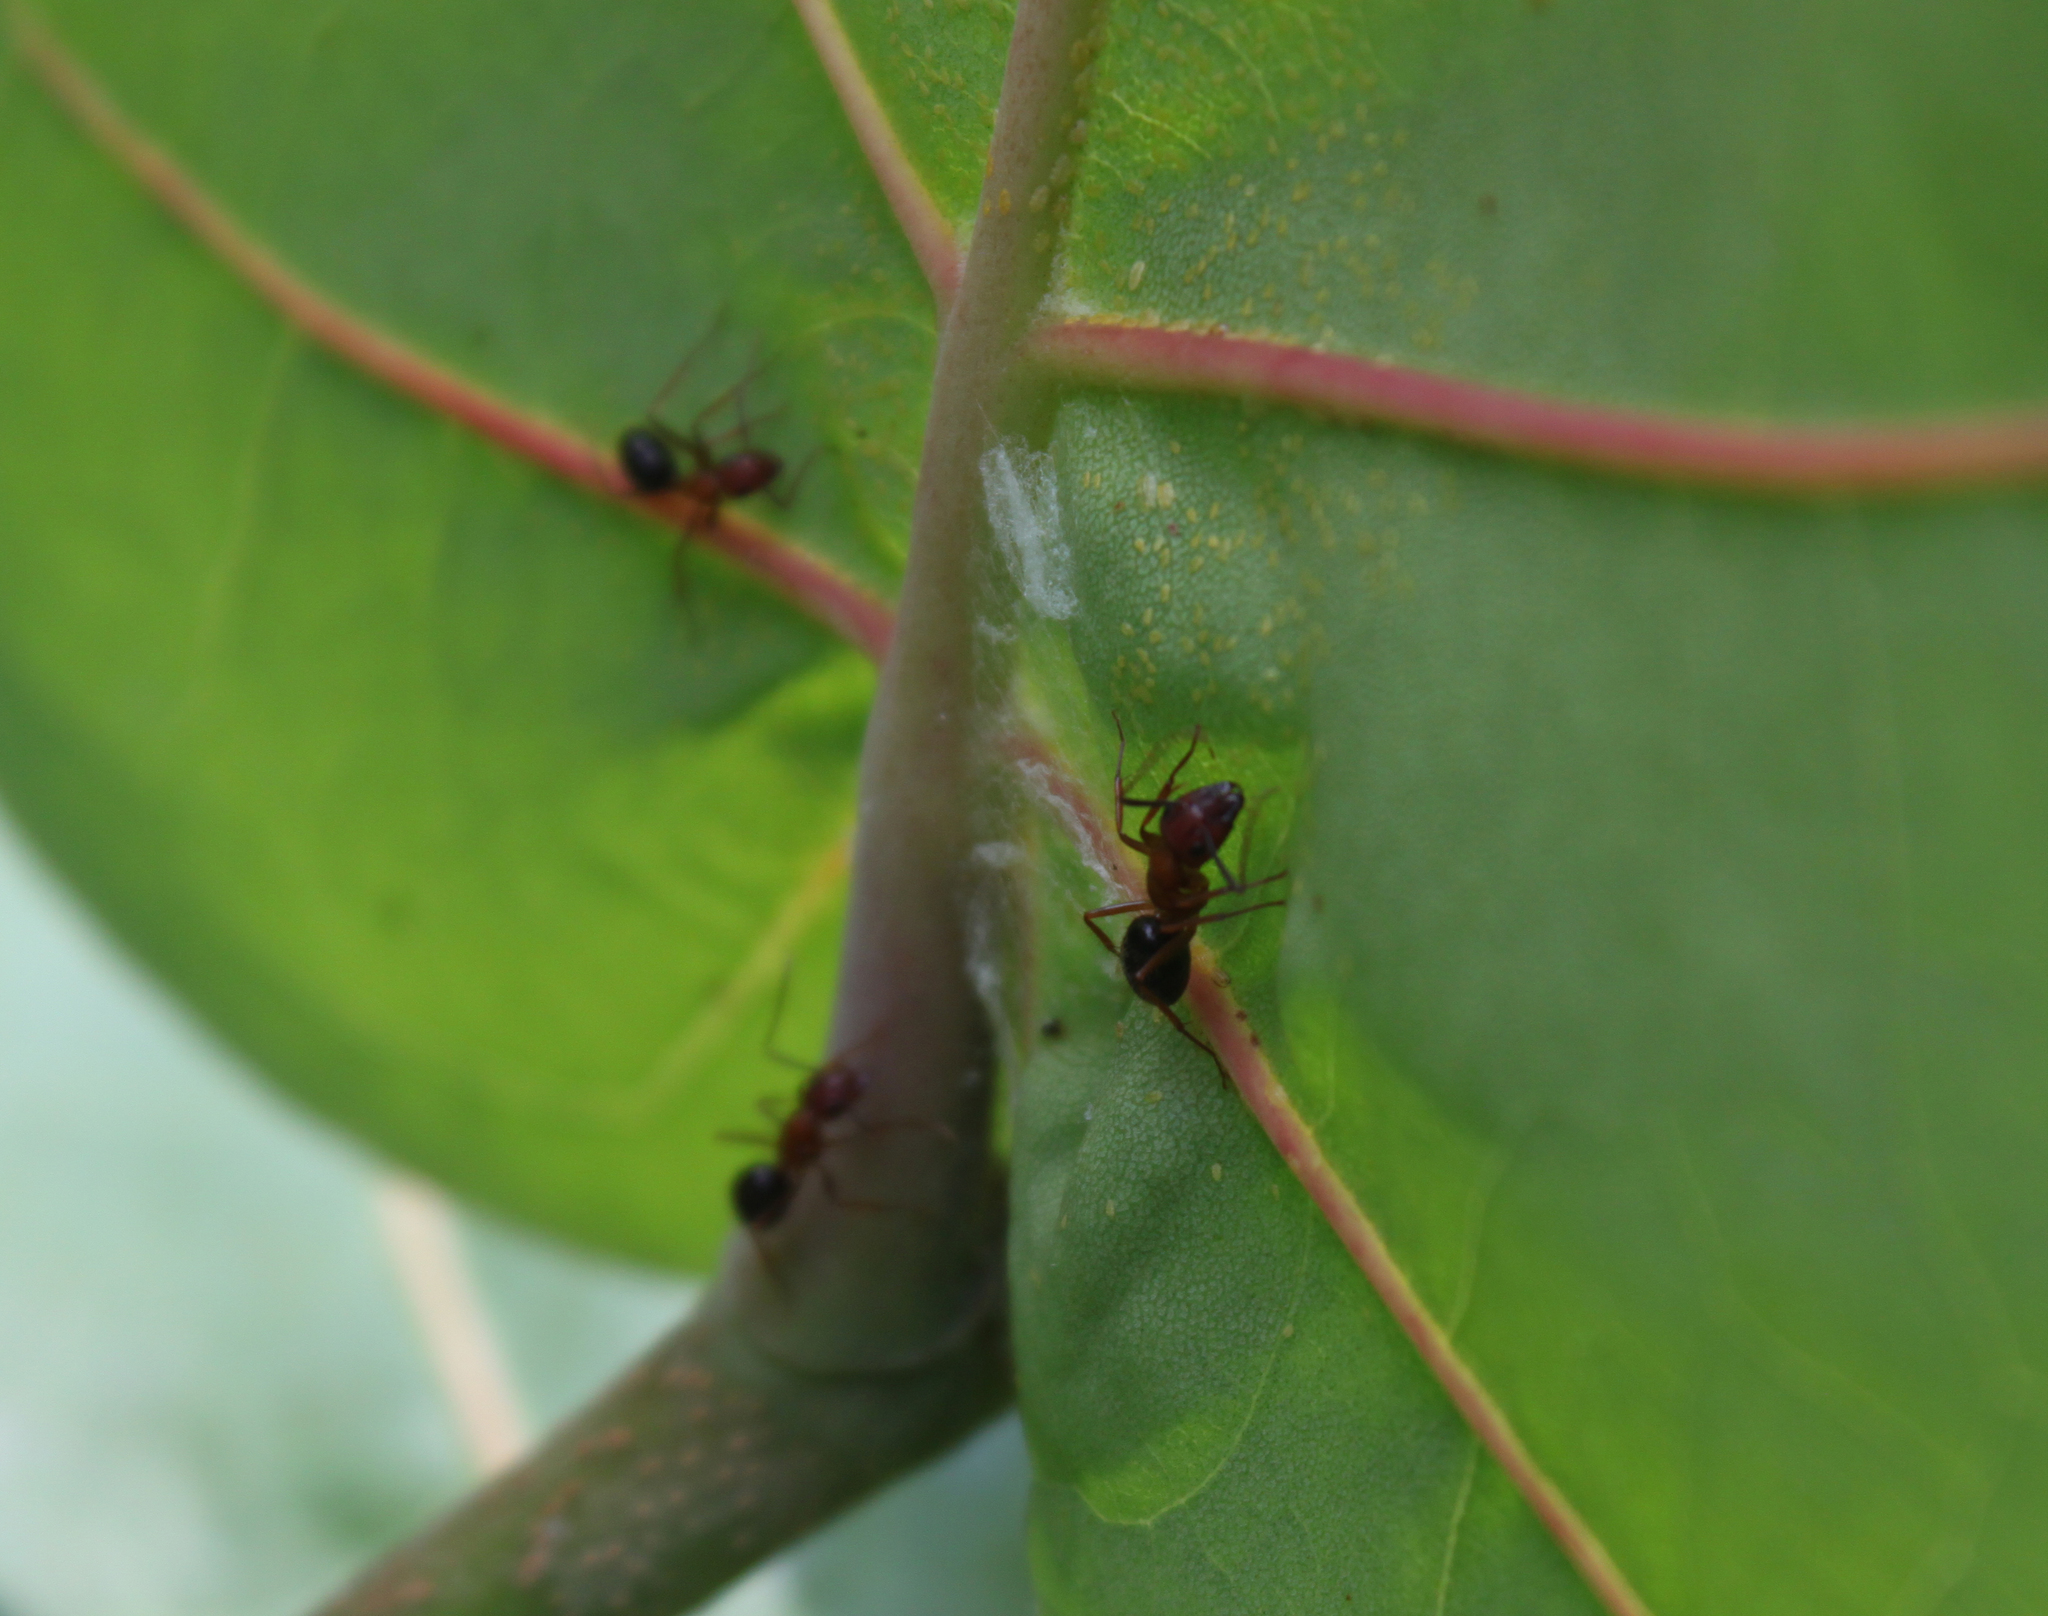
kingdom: Animalia
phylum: Arthropoda
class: Insecta
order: Hymenoptera
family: Formicidae
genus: Camponotus
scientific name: Camponotus floridanus
